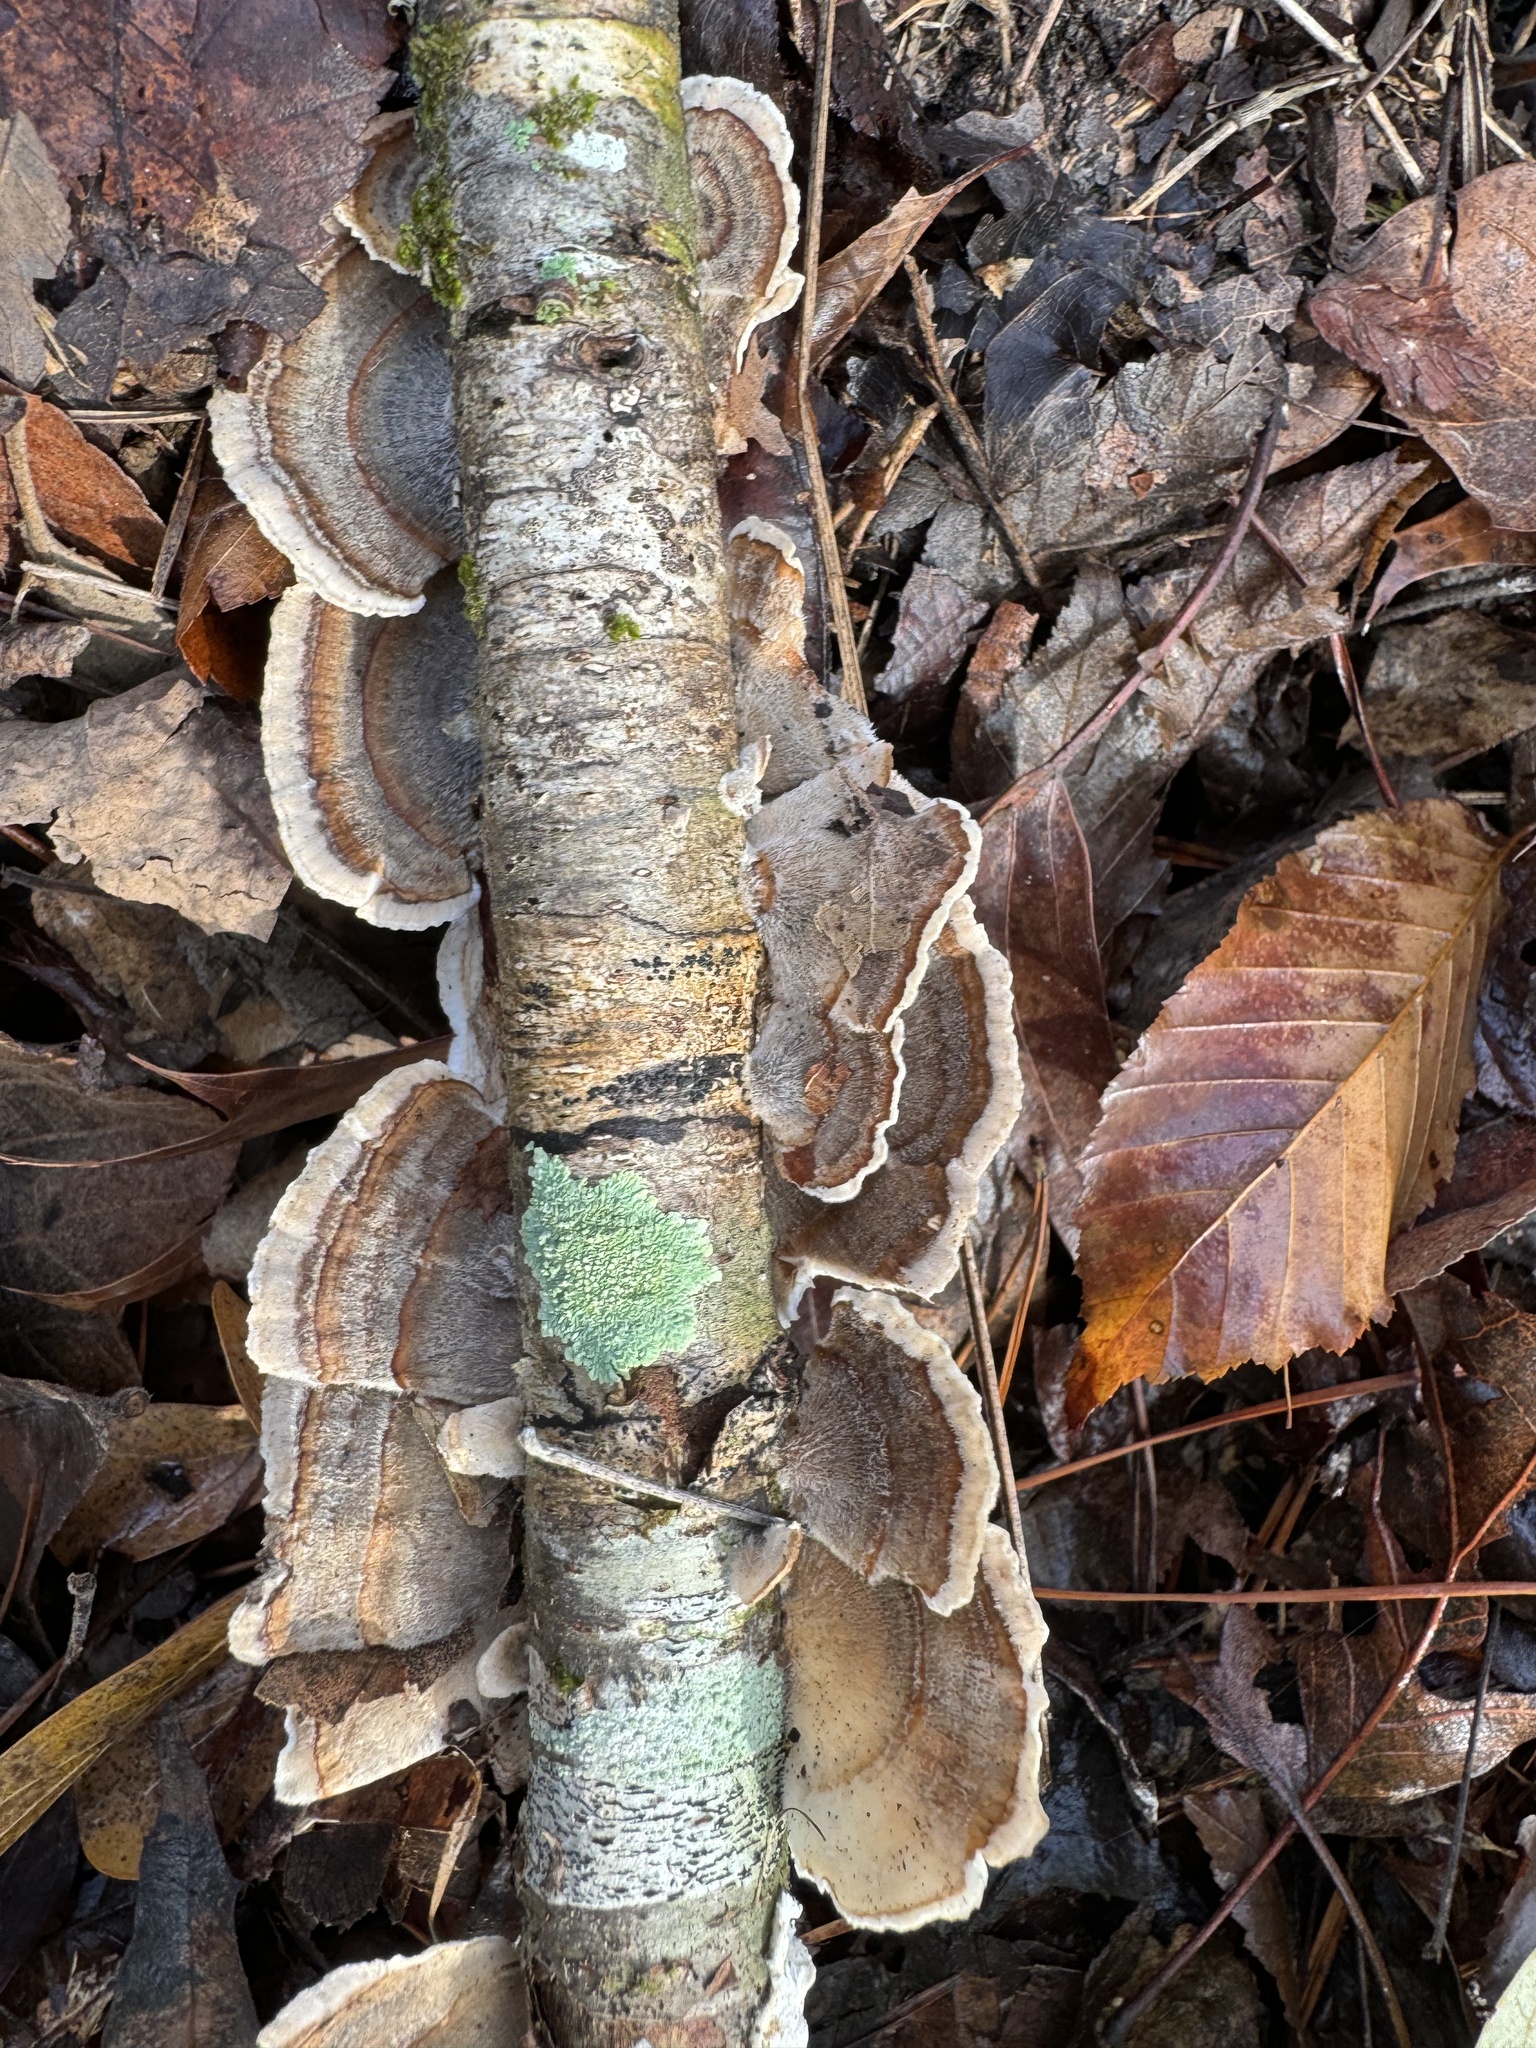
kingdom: Fungi
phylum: Basidiomycota
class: Agaricomycetes
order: Polyporales
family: Polyporaceae
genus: Trametes
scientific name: Trametes versicolor
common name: Turkeytail
